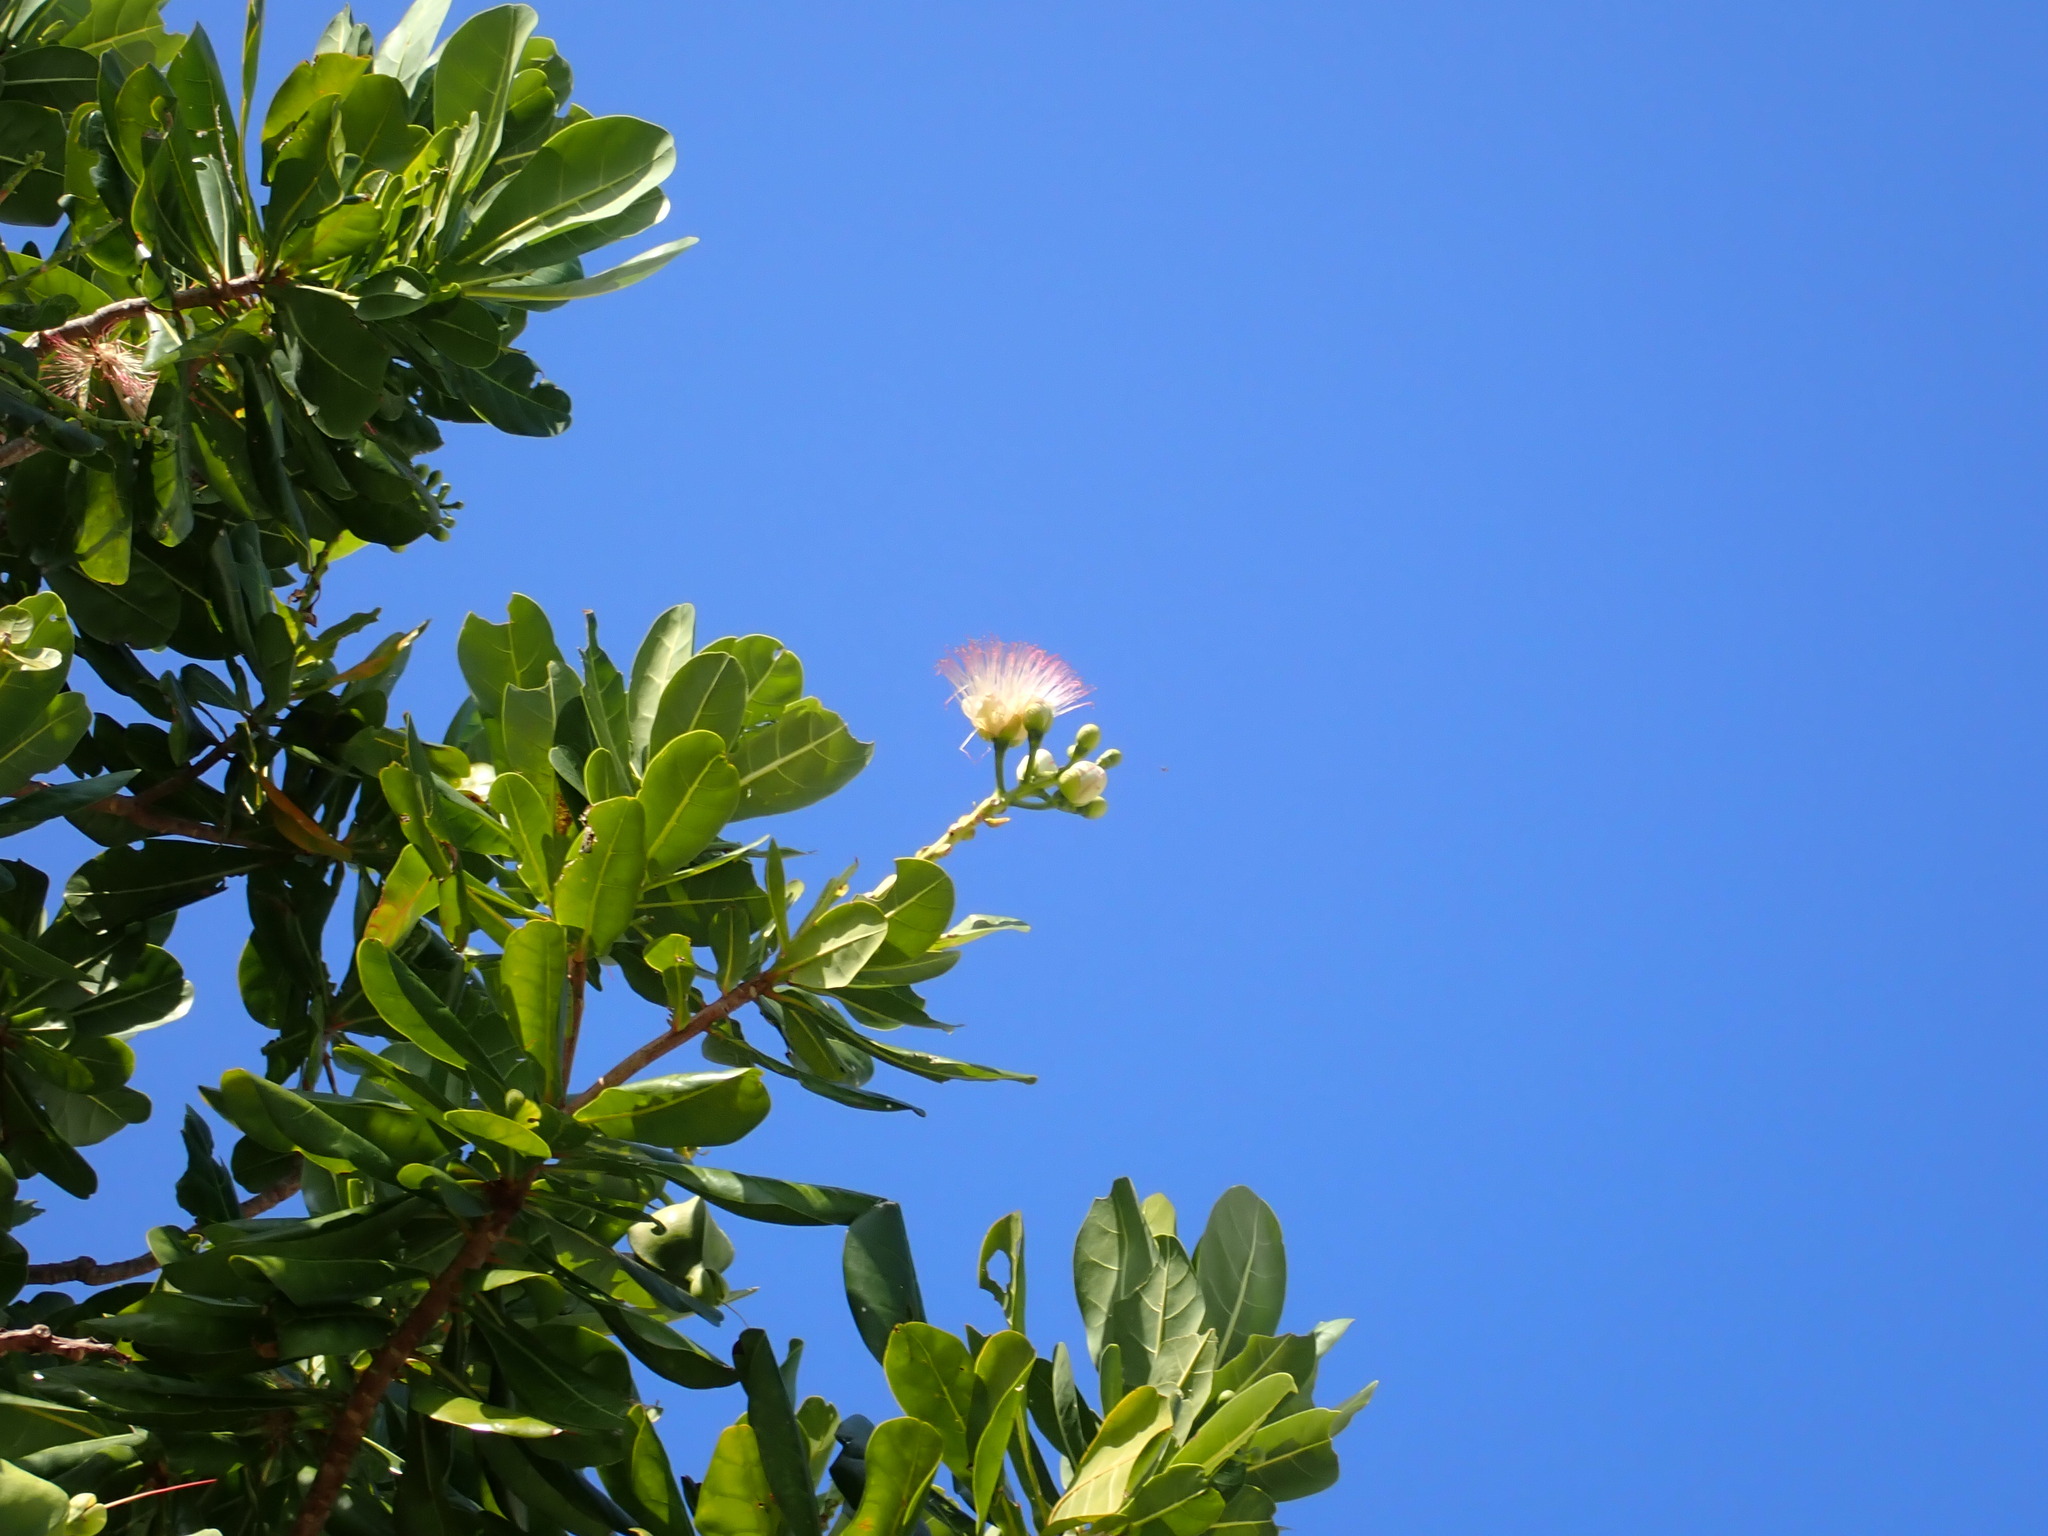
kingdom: Plantae
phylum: Tracheophyta
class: Magnoliopsida
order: Ericales
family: Lecythidaceae
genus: Barringtonia
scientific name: Barringtonia asiatica
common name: Mango-pine
